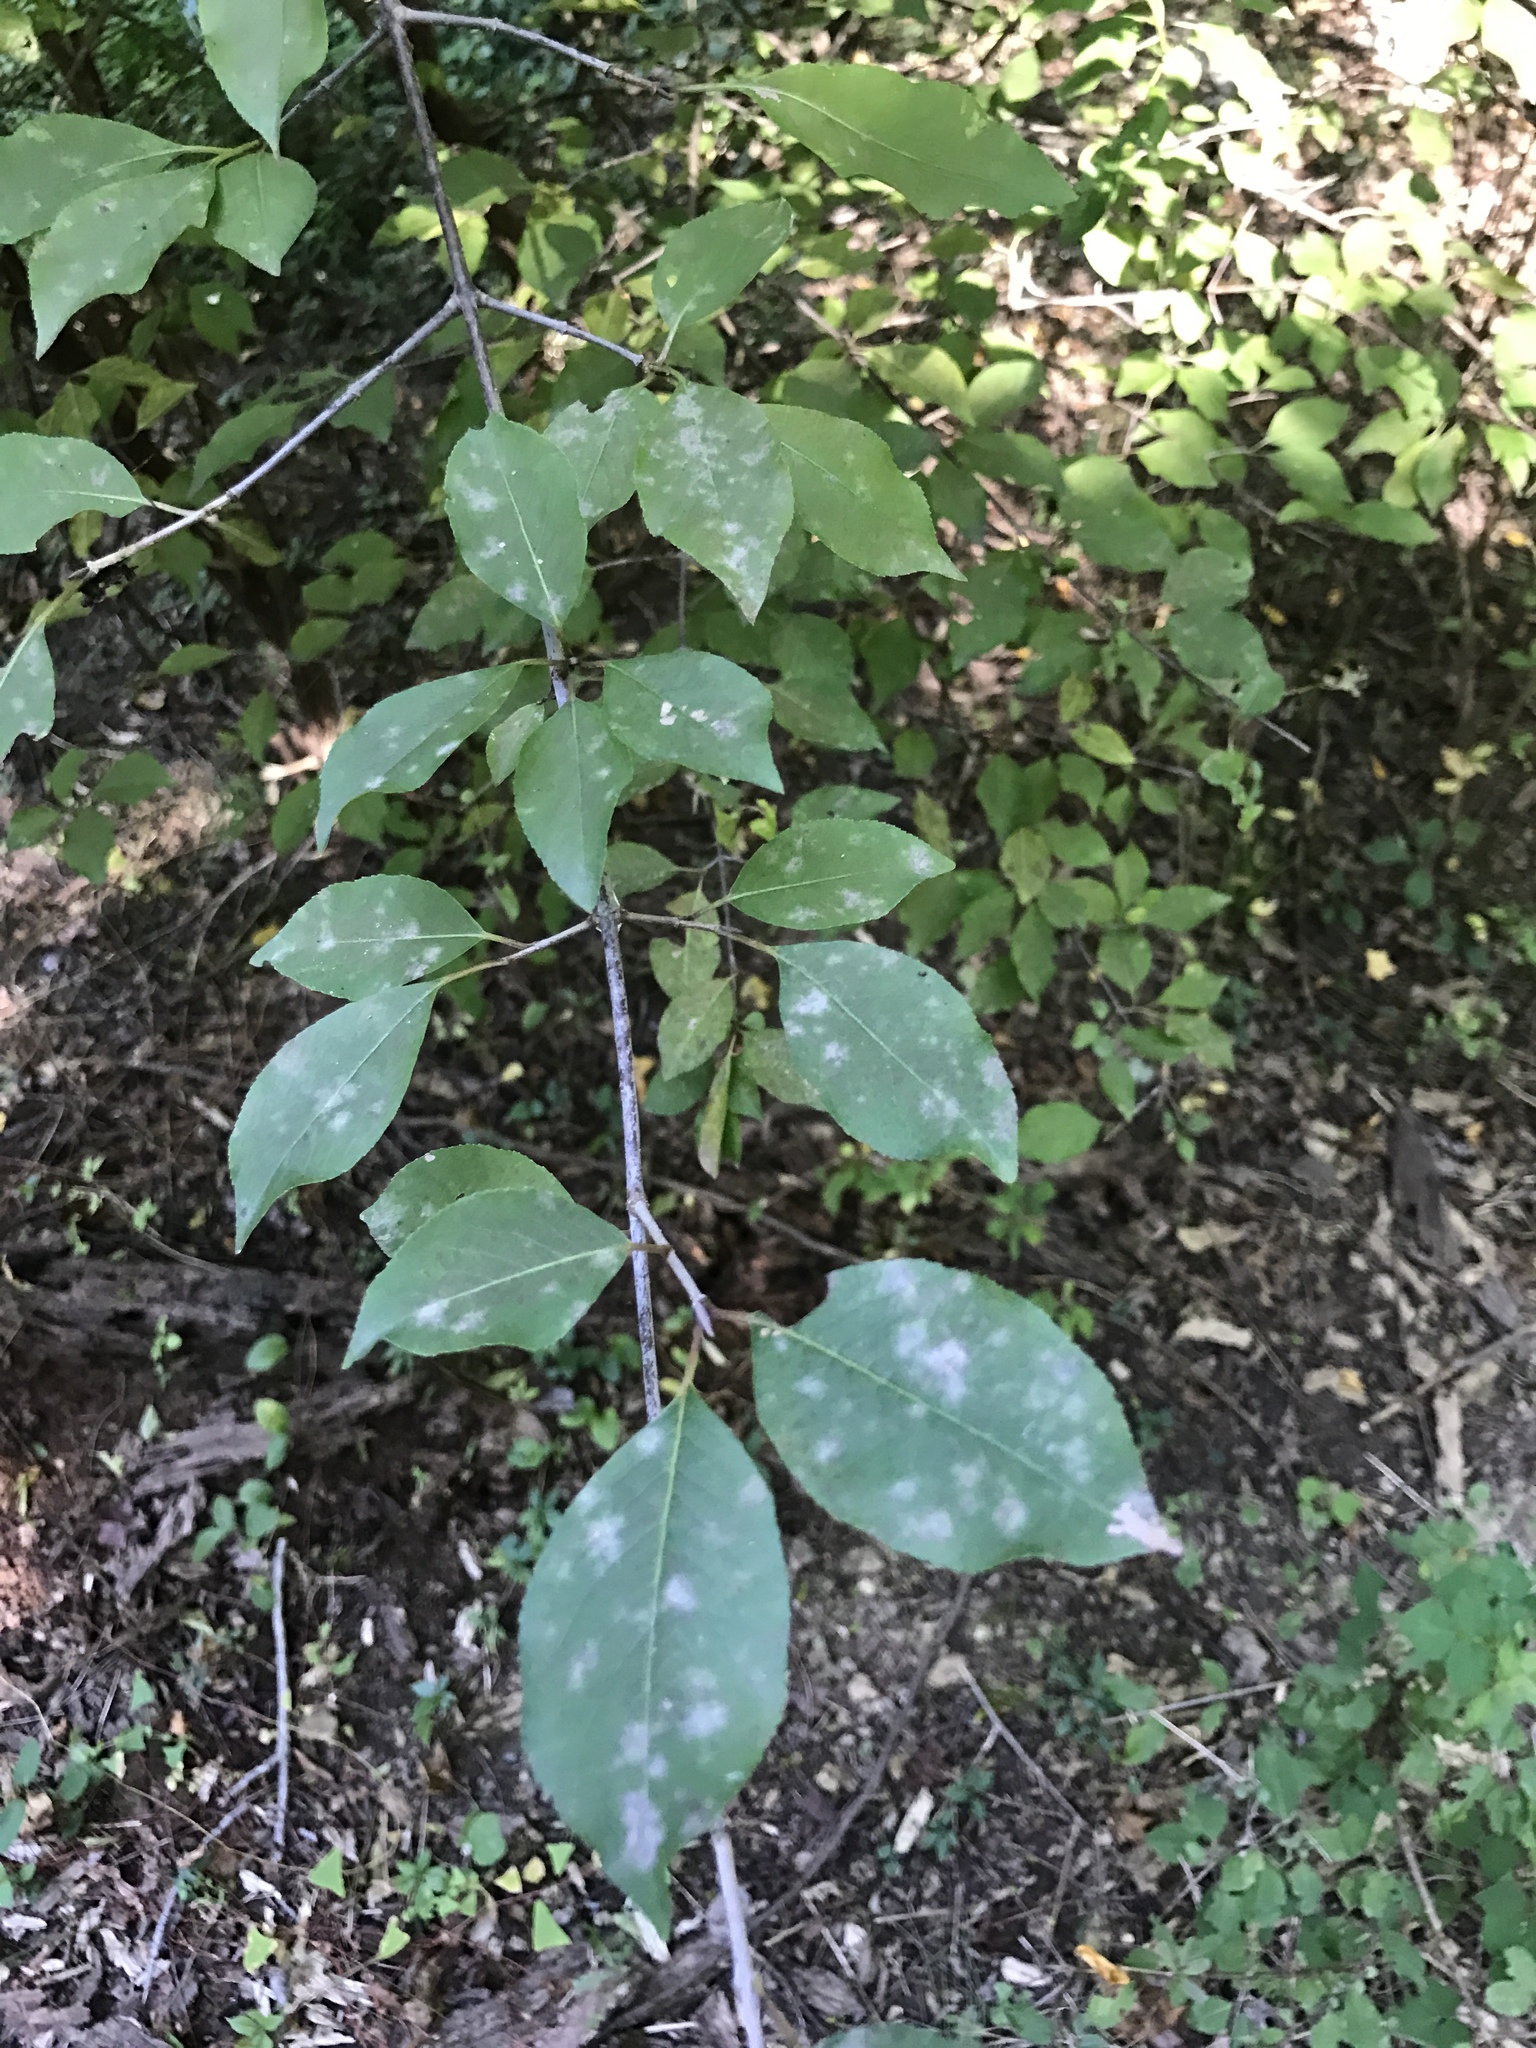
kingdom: Plantae
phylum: Tracheophyta
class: Magnoliopsida
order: Dipsacales
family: Viburnaceae
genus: Viburnum
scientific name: Viburnum prunifolium
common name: Black haw
